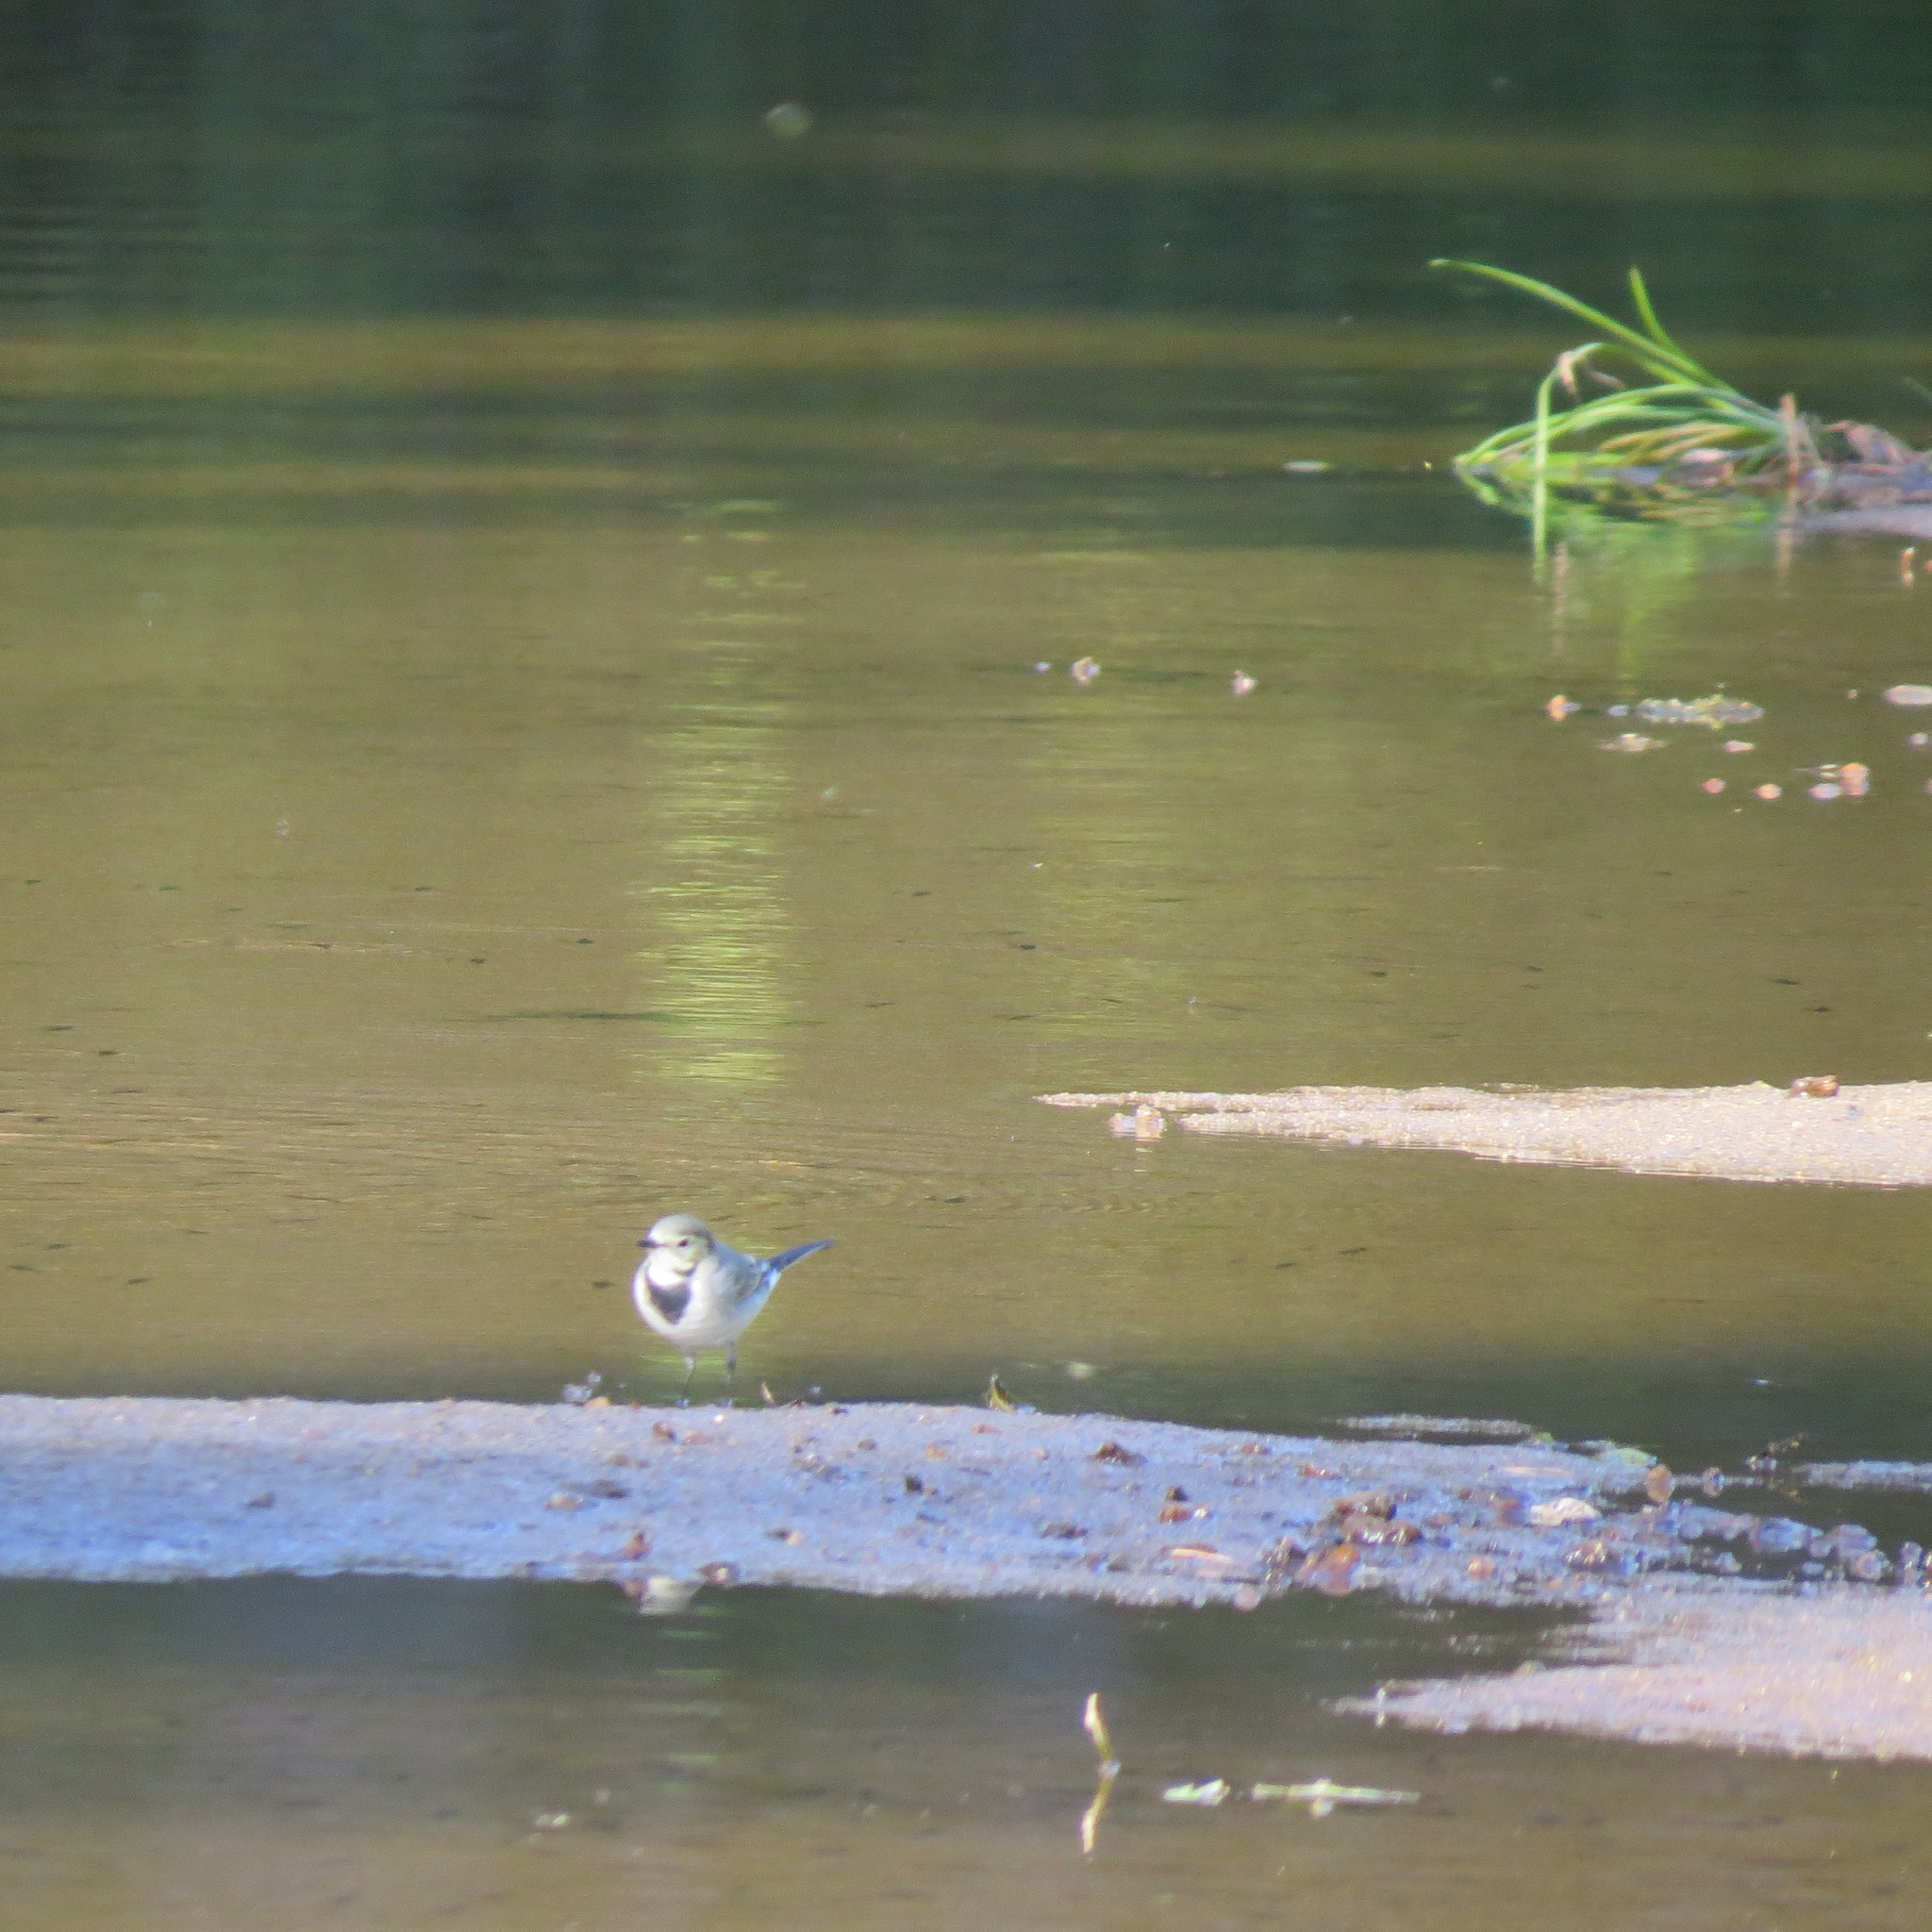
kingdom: Animalia
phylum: Chordata
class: Aves
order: Passeriformes
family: Motacillidae
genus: Motacilla
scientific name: Motacilla alba
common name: White wagtail
